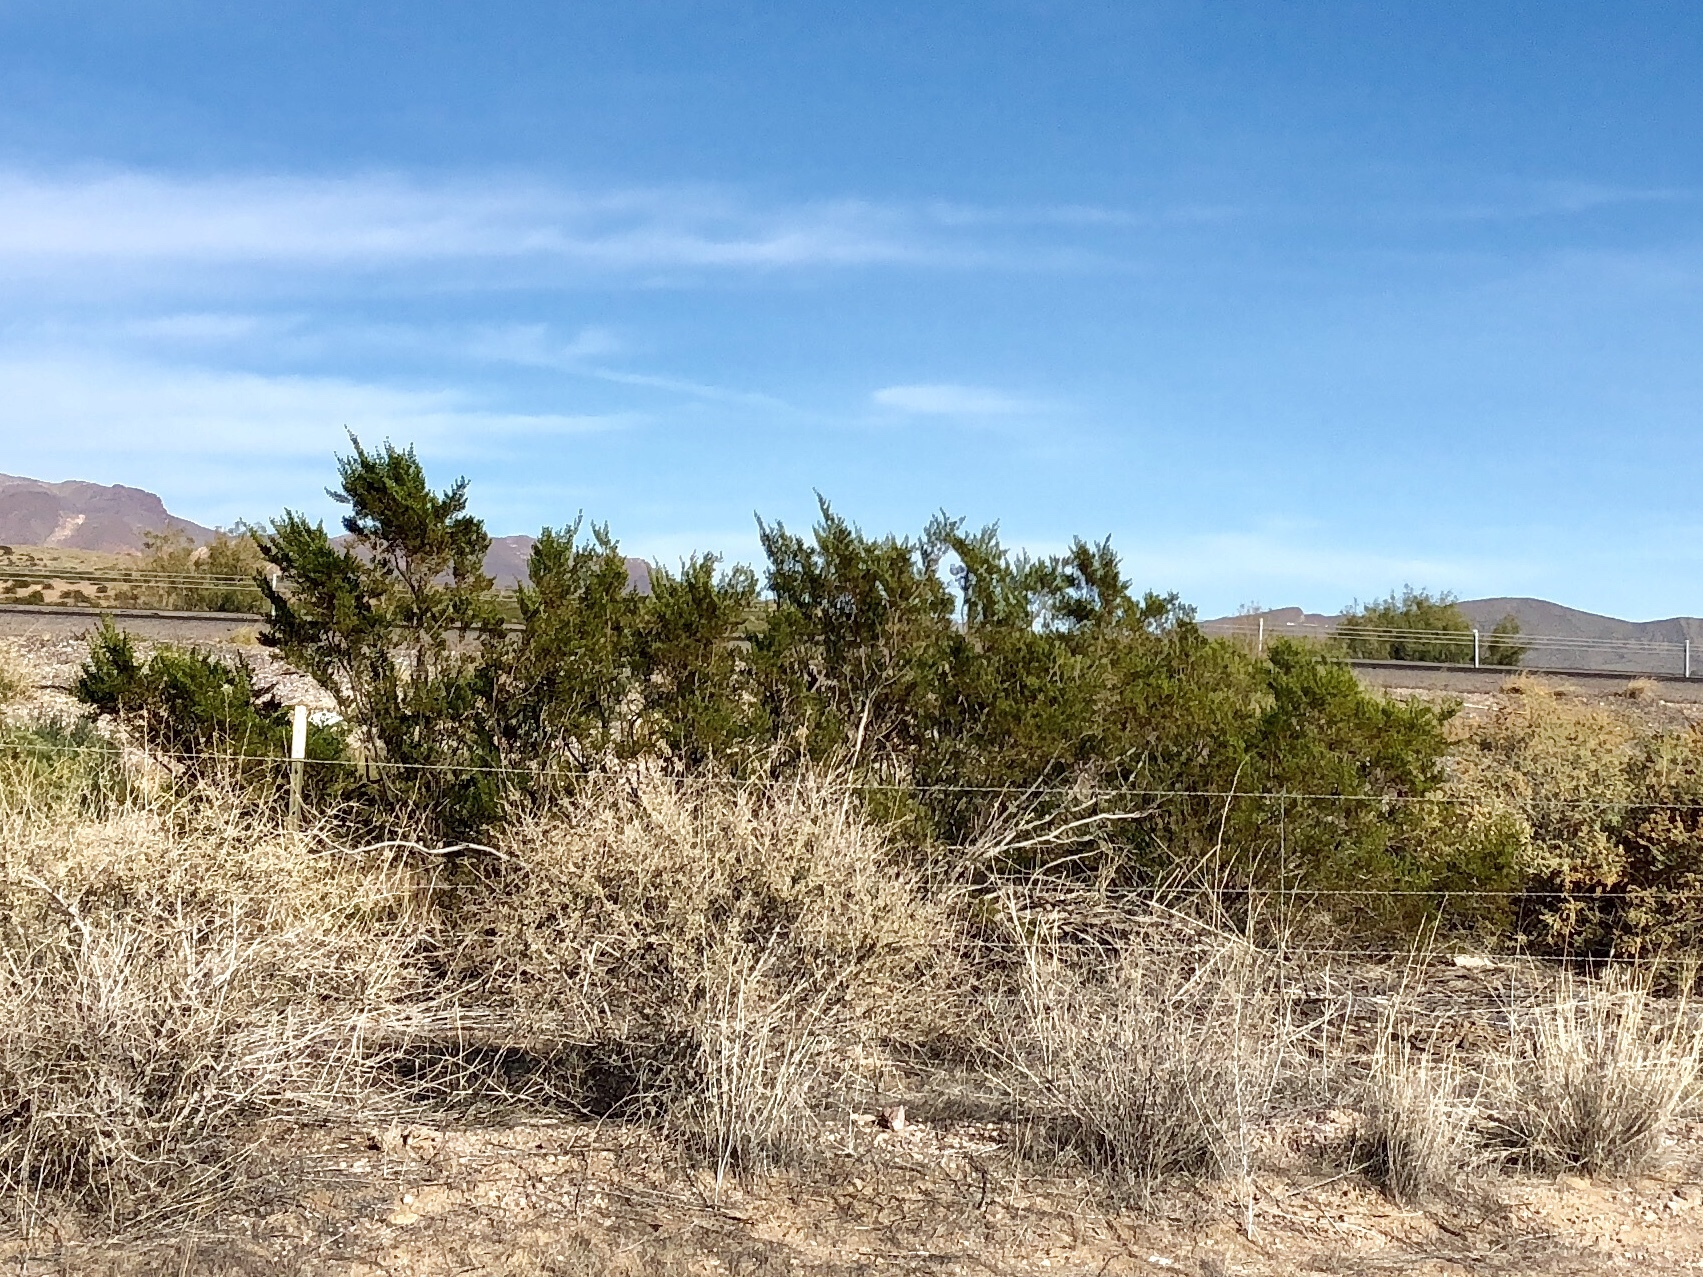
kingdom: Plantae
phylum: Tracheophyta
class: Magnoliopsida
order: Zygophyllales
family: Zygophyllaceae
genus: Larrea
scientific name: Larrea tridentata
